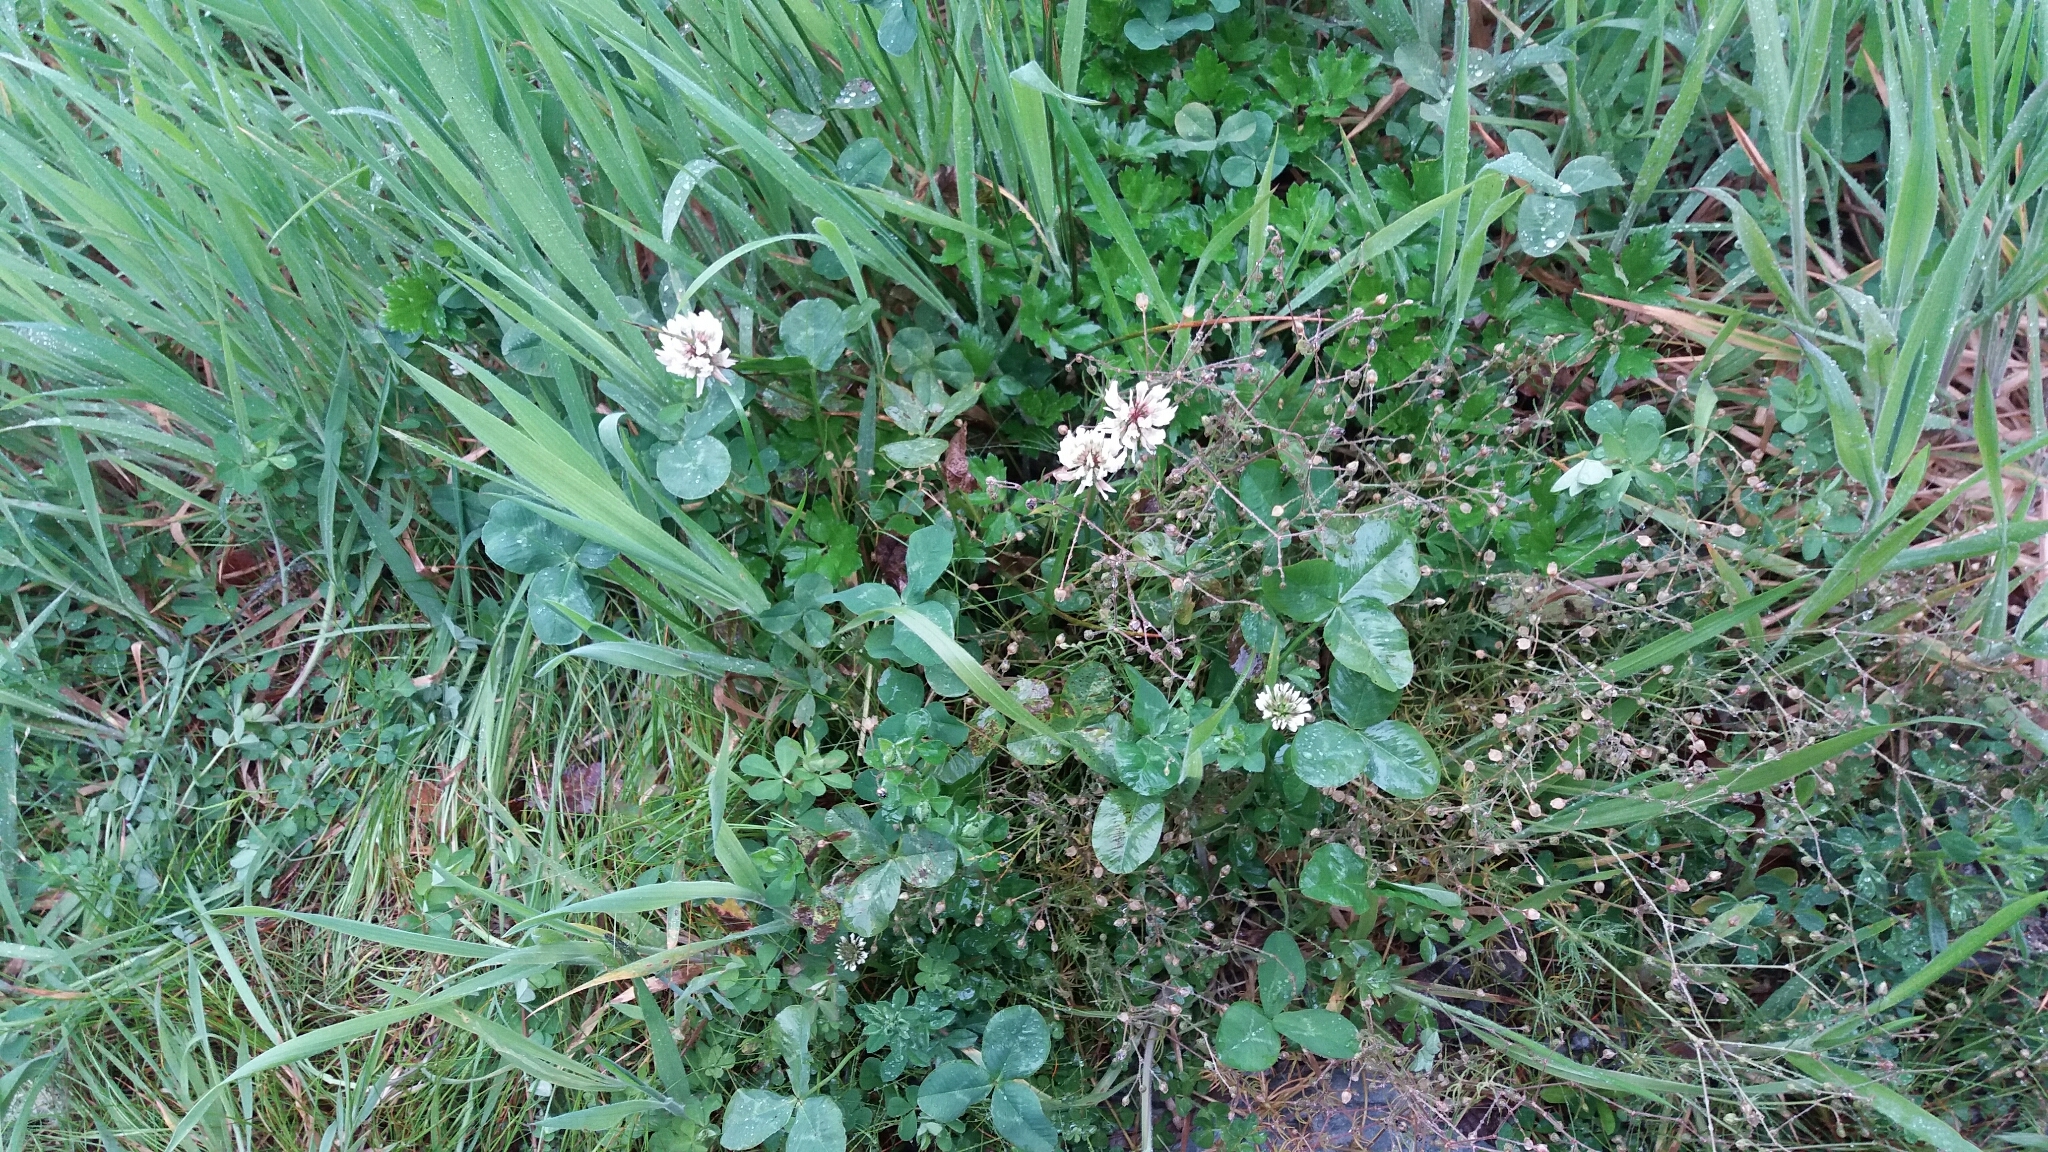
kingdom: Plantae
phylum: Tracheophyta
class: Magnoliopsida
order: Fabales
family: Fabaceae
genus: Trifolium
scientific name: Trifolium repens
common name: White clover
